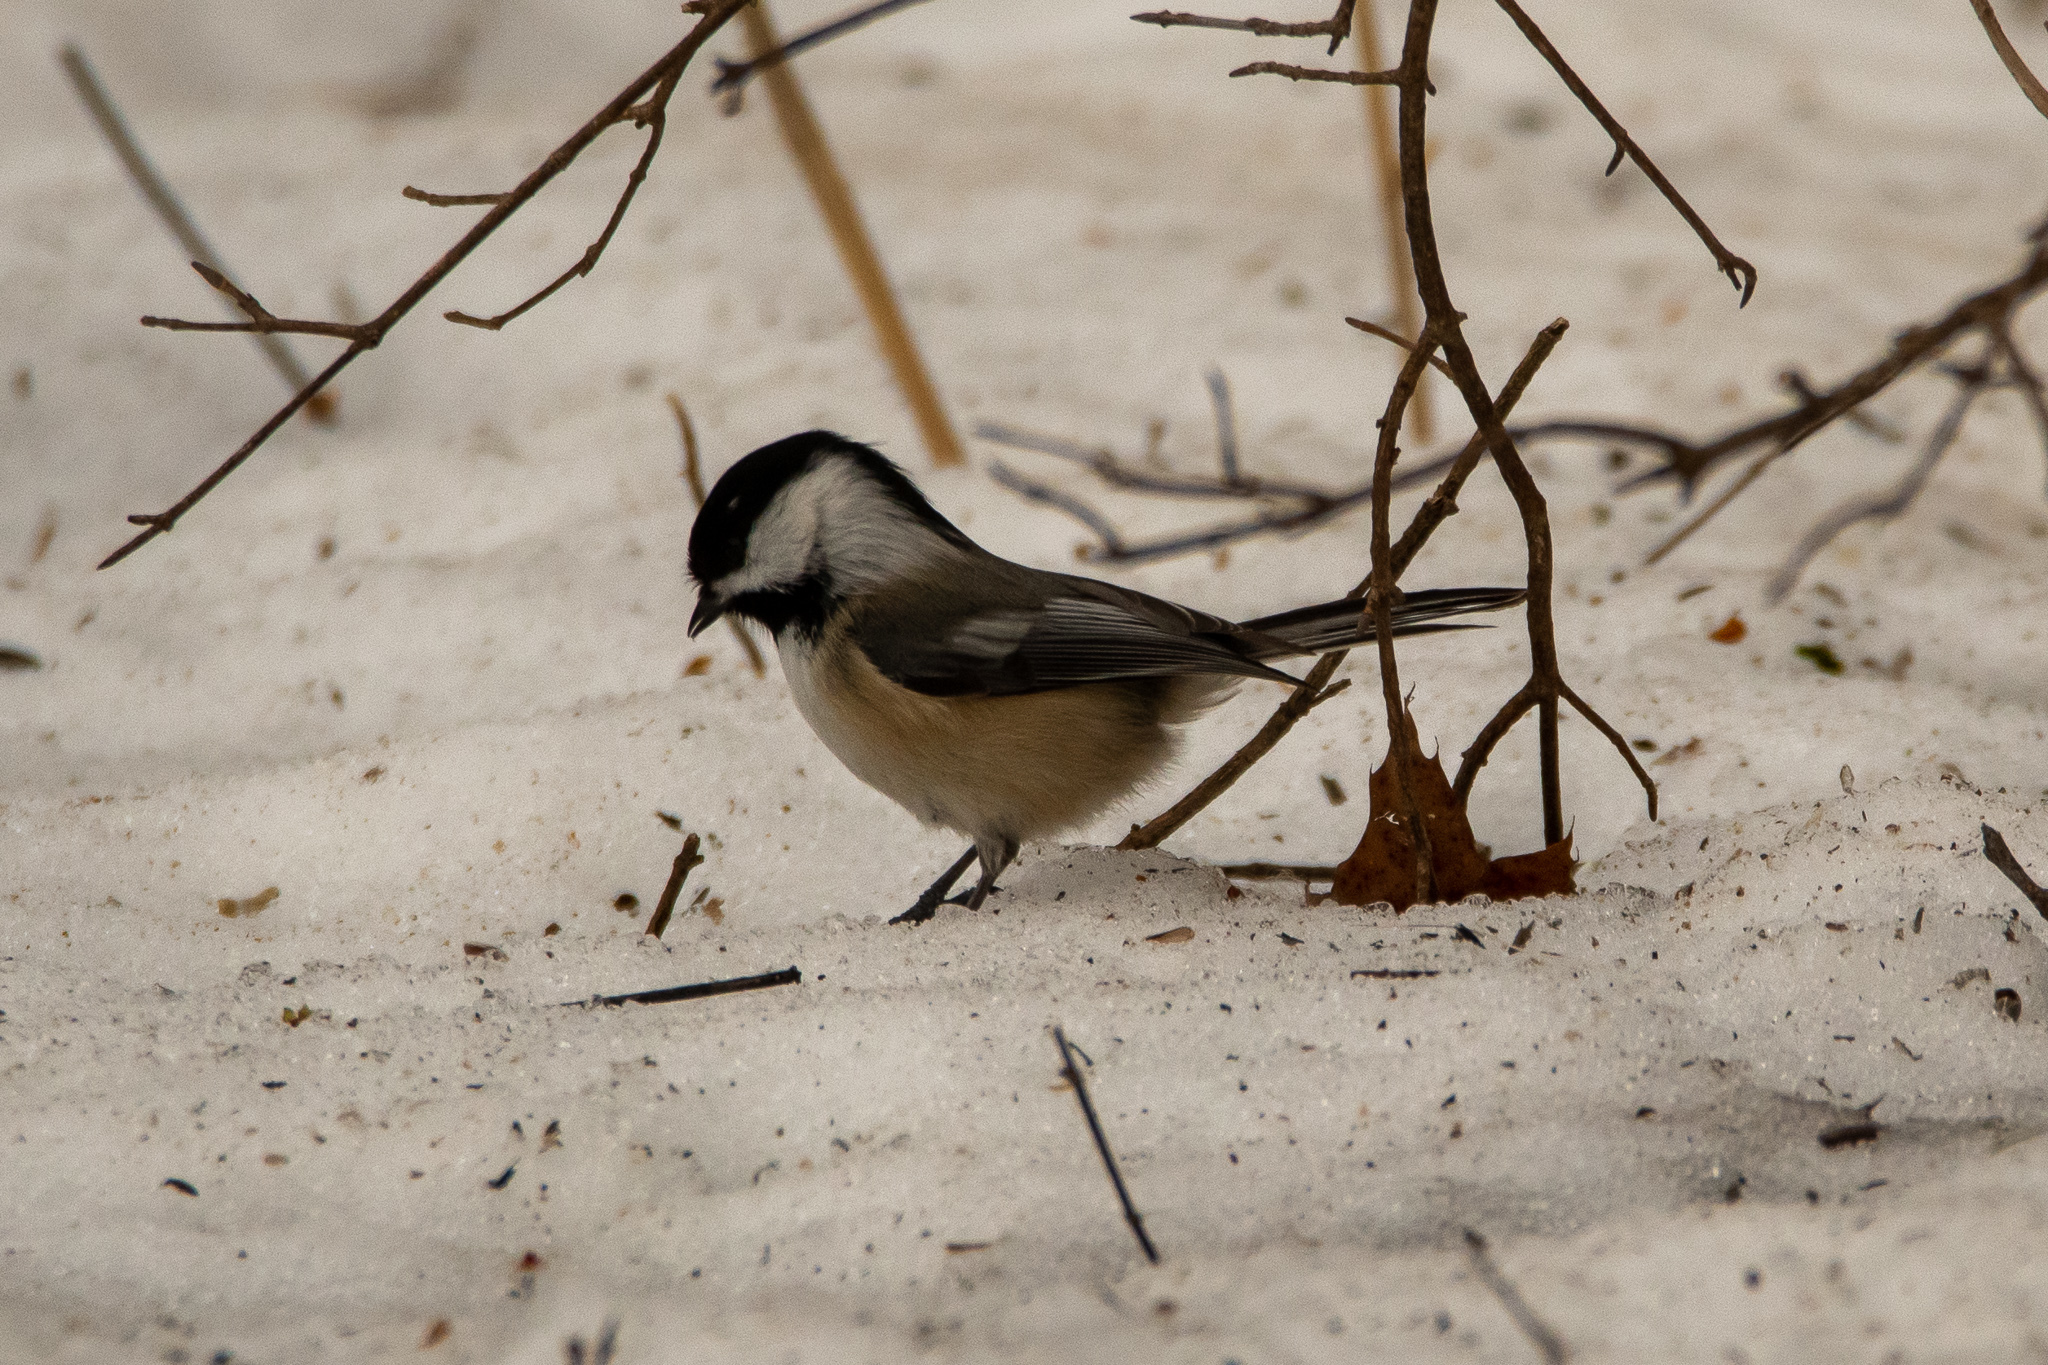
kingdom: Animalia
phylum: Chordata
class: Aves
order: Passeriformes
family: Paridae
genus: Poecile
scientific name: Poecile atricapillus
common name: Black-capped chickadee
